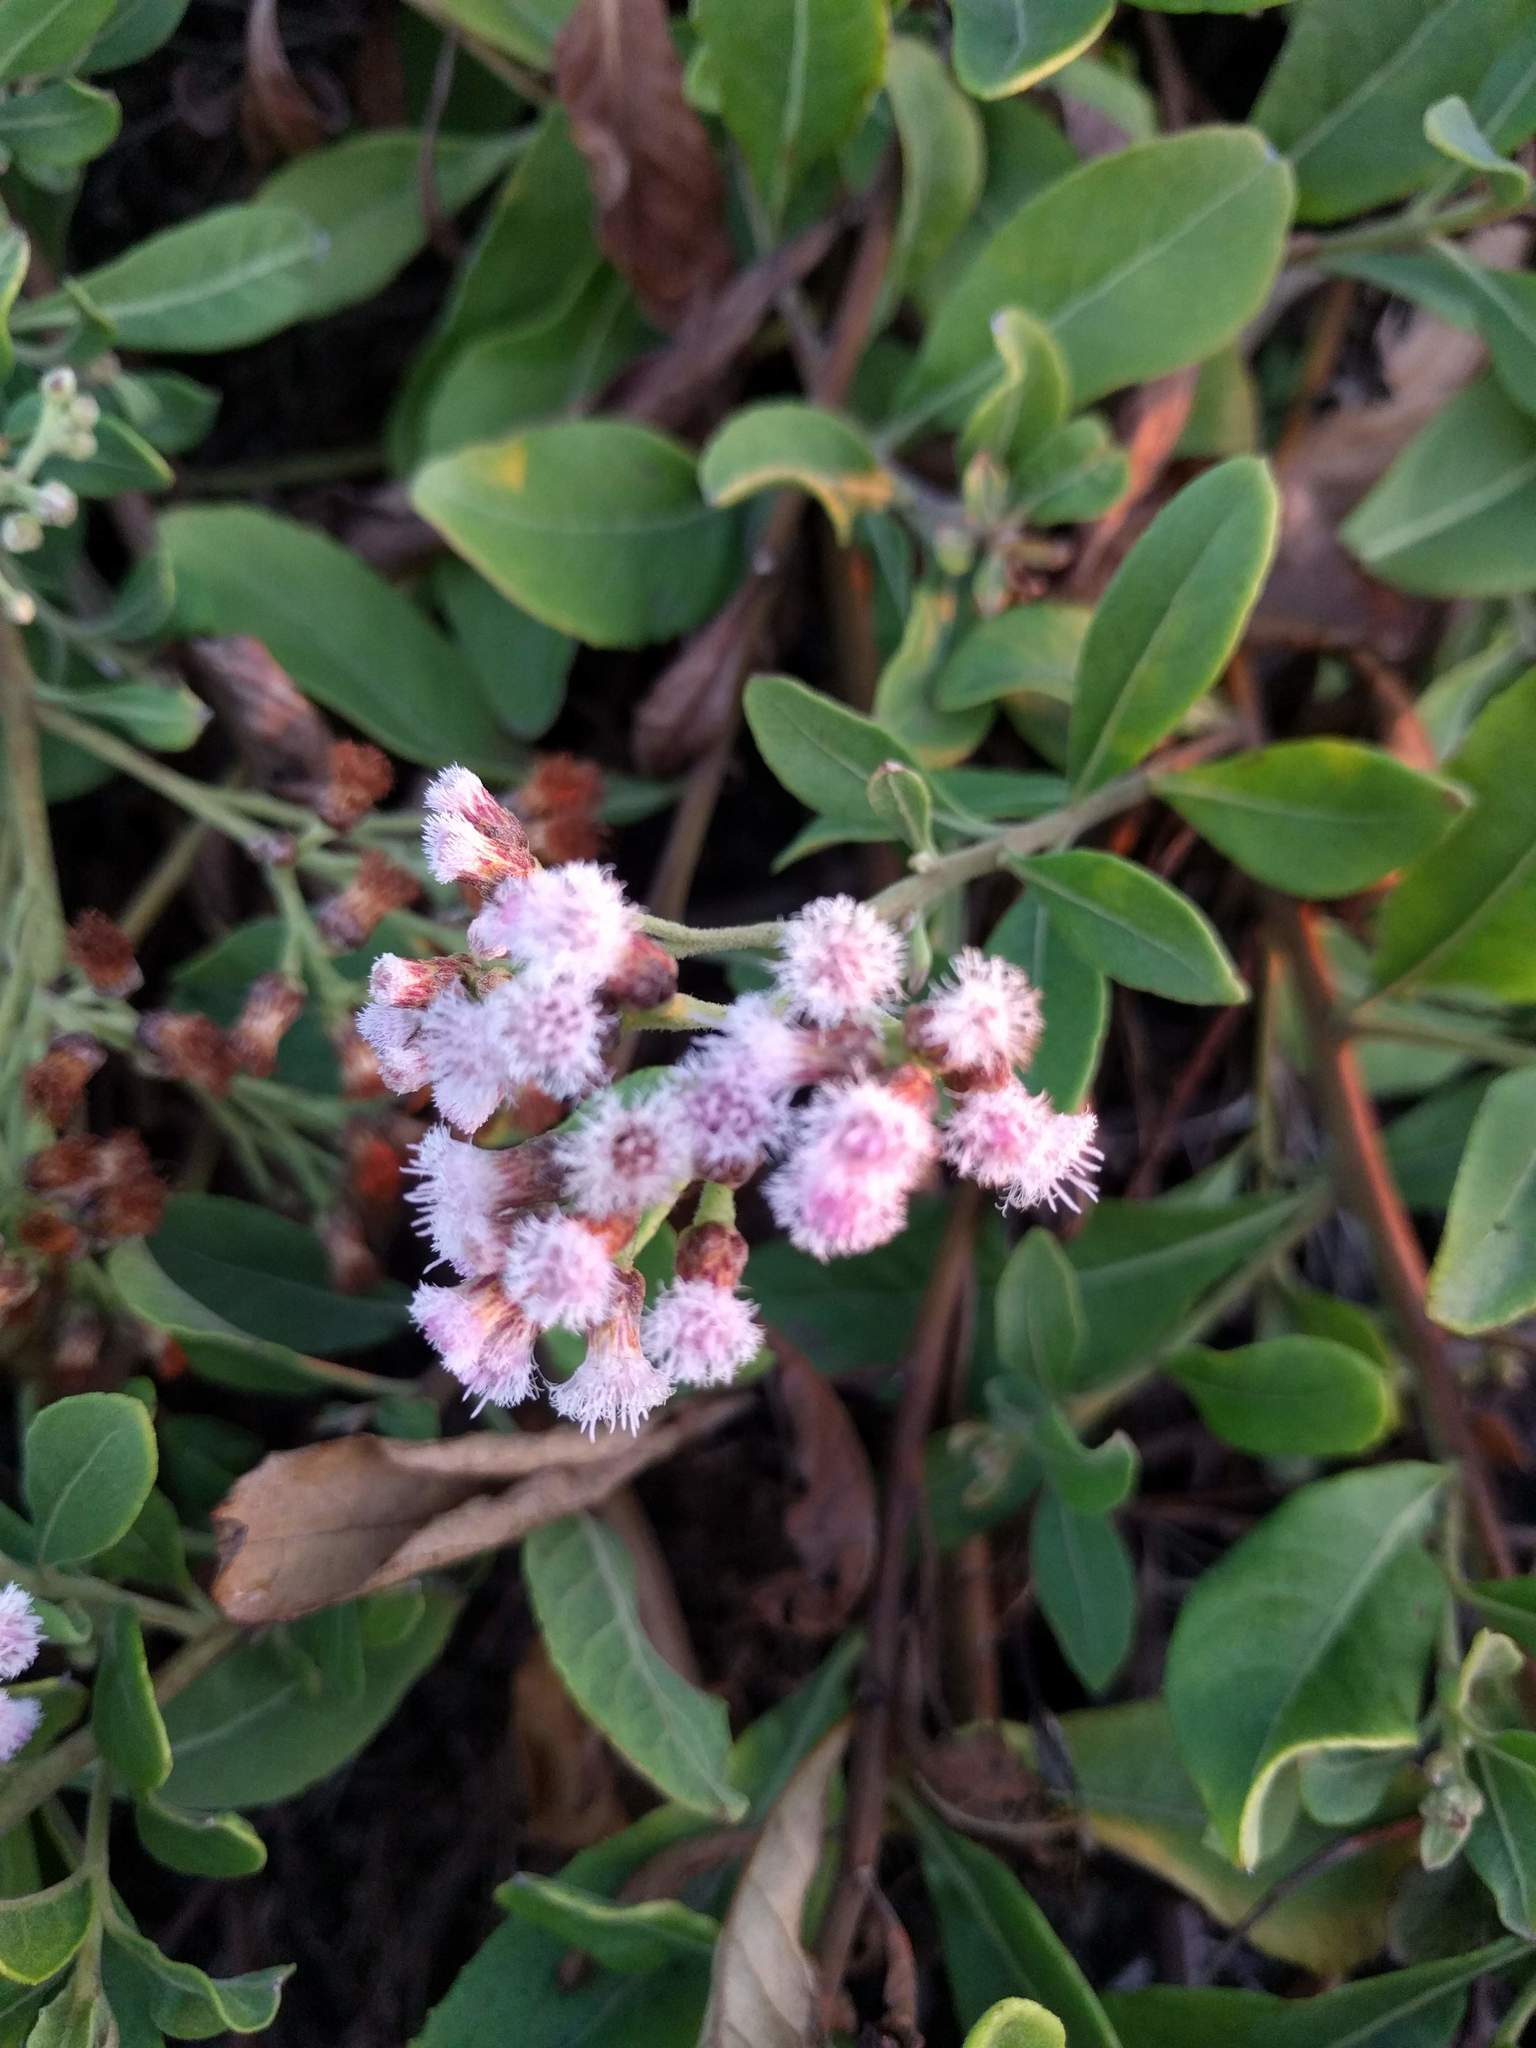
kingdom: Plantae
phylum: Tracheophyta
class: Magnoliopsida
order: Asterales
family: Asteraceae
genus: Pluchea
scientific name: Pluchea carolinensis
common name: Marsh fleabane
